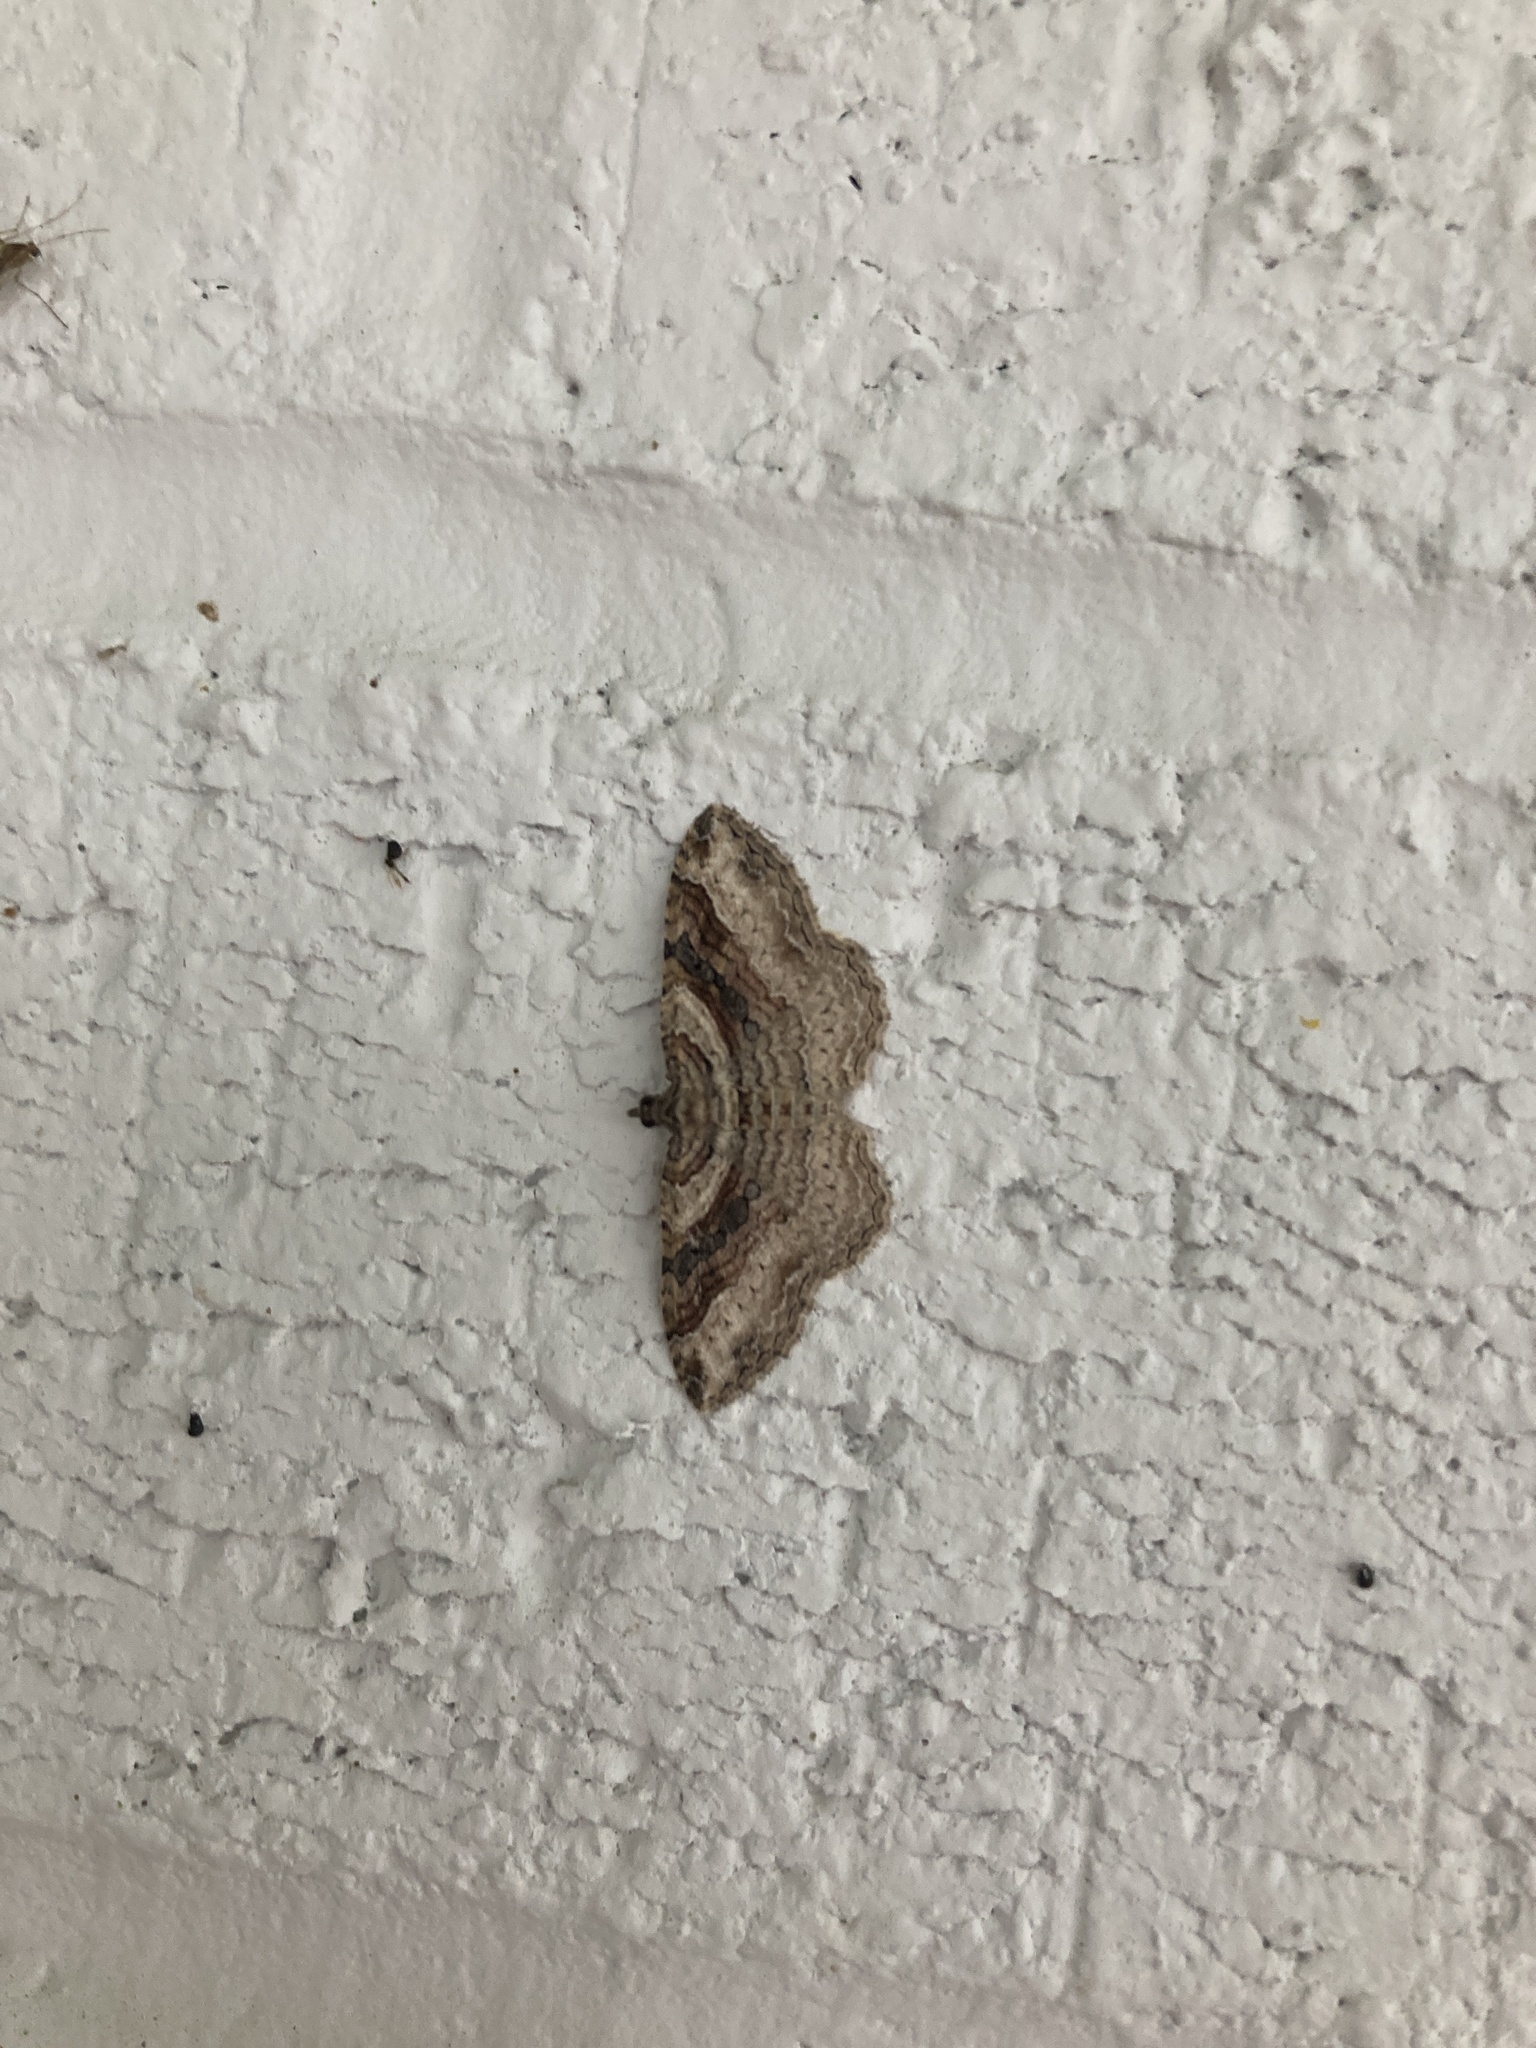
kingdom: Animalia
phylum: Arthropoda
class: Insecta
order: Lepidoptera
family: Geometridae
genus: Costaconvexa
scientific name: Costaconvexa centrostrigaria
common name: Bent-line carpet
